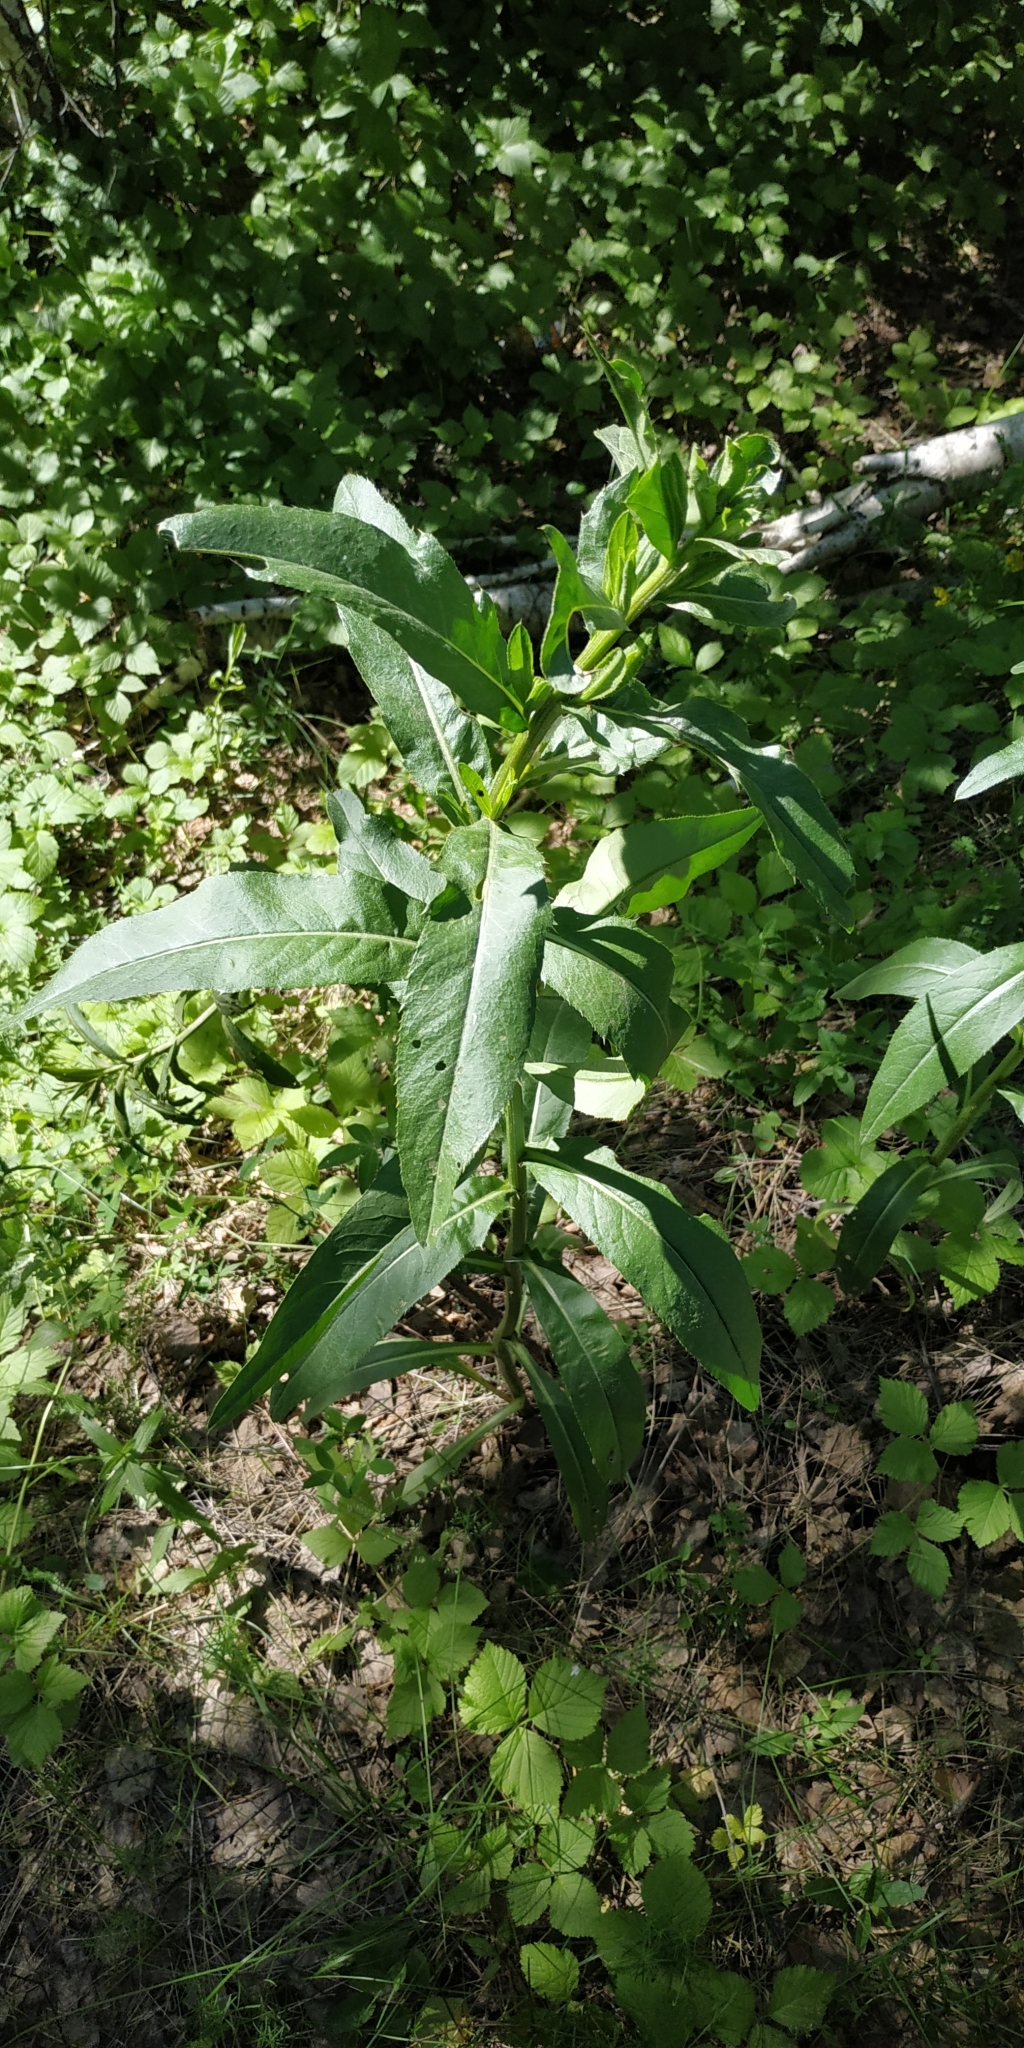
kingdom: Plantae
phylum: Tracheophyta
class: Magnoliopsida
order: Asterales
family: Asteraceae
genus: Cirsium
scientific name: Cirsium arvense
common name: Creeping thistle
